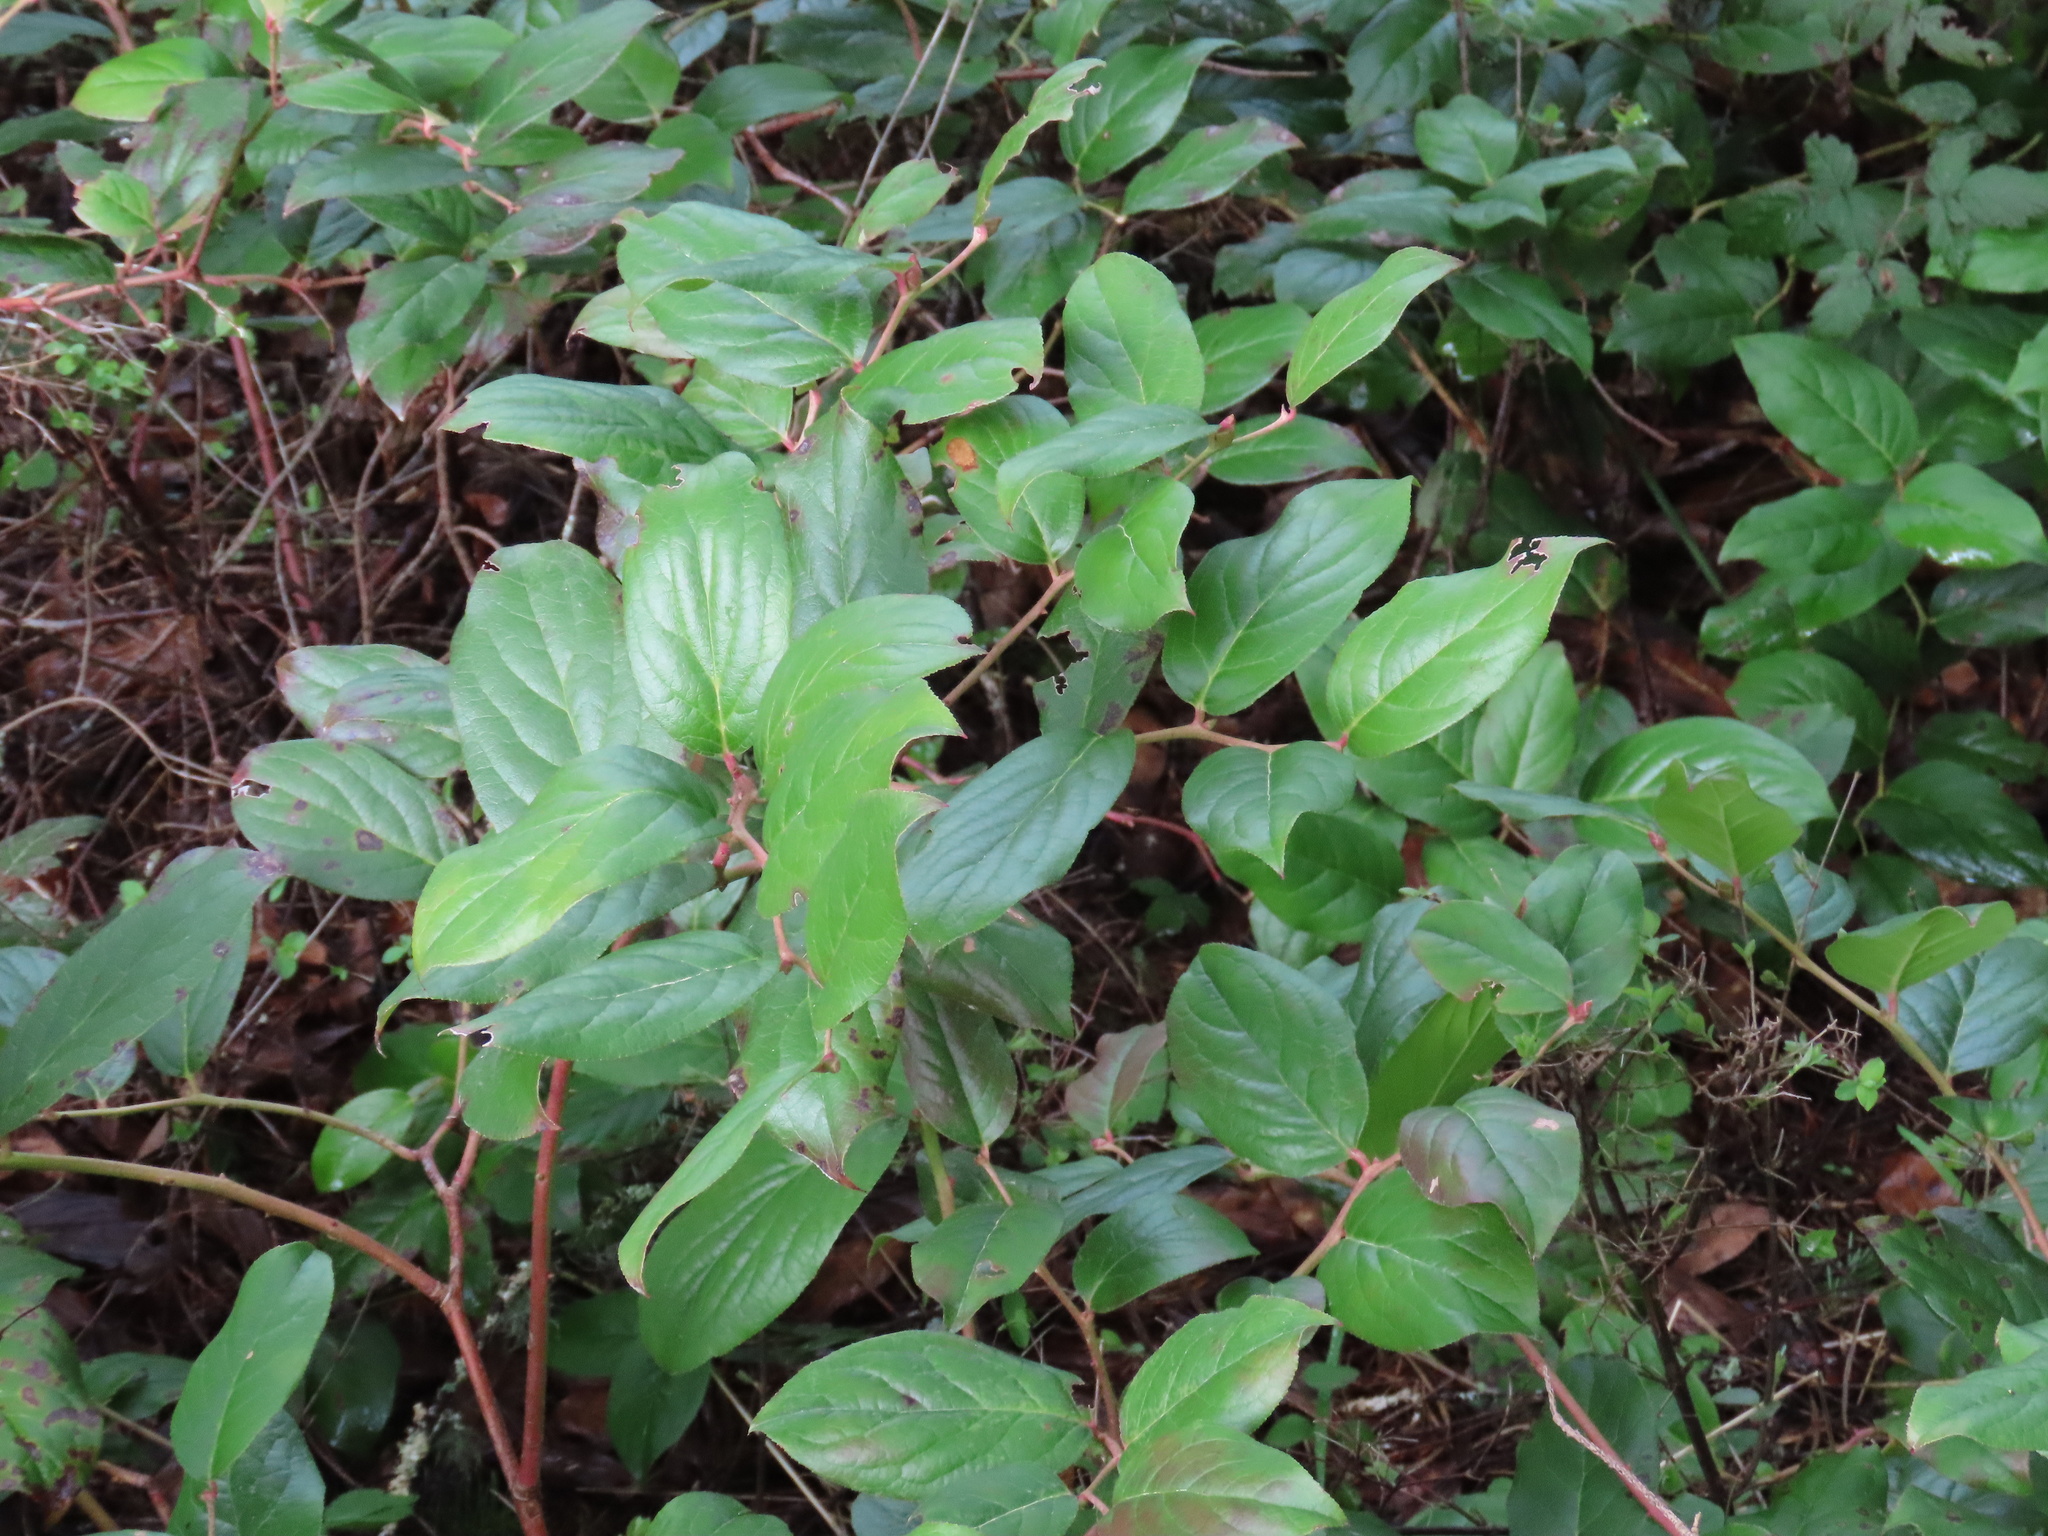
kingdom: Plantae
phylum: Tracheophyta
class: Magnoliopsida
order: Ericales
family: Ericaceae
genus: Gaultheria
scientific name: Gaultheria shallon
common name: Shallon
